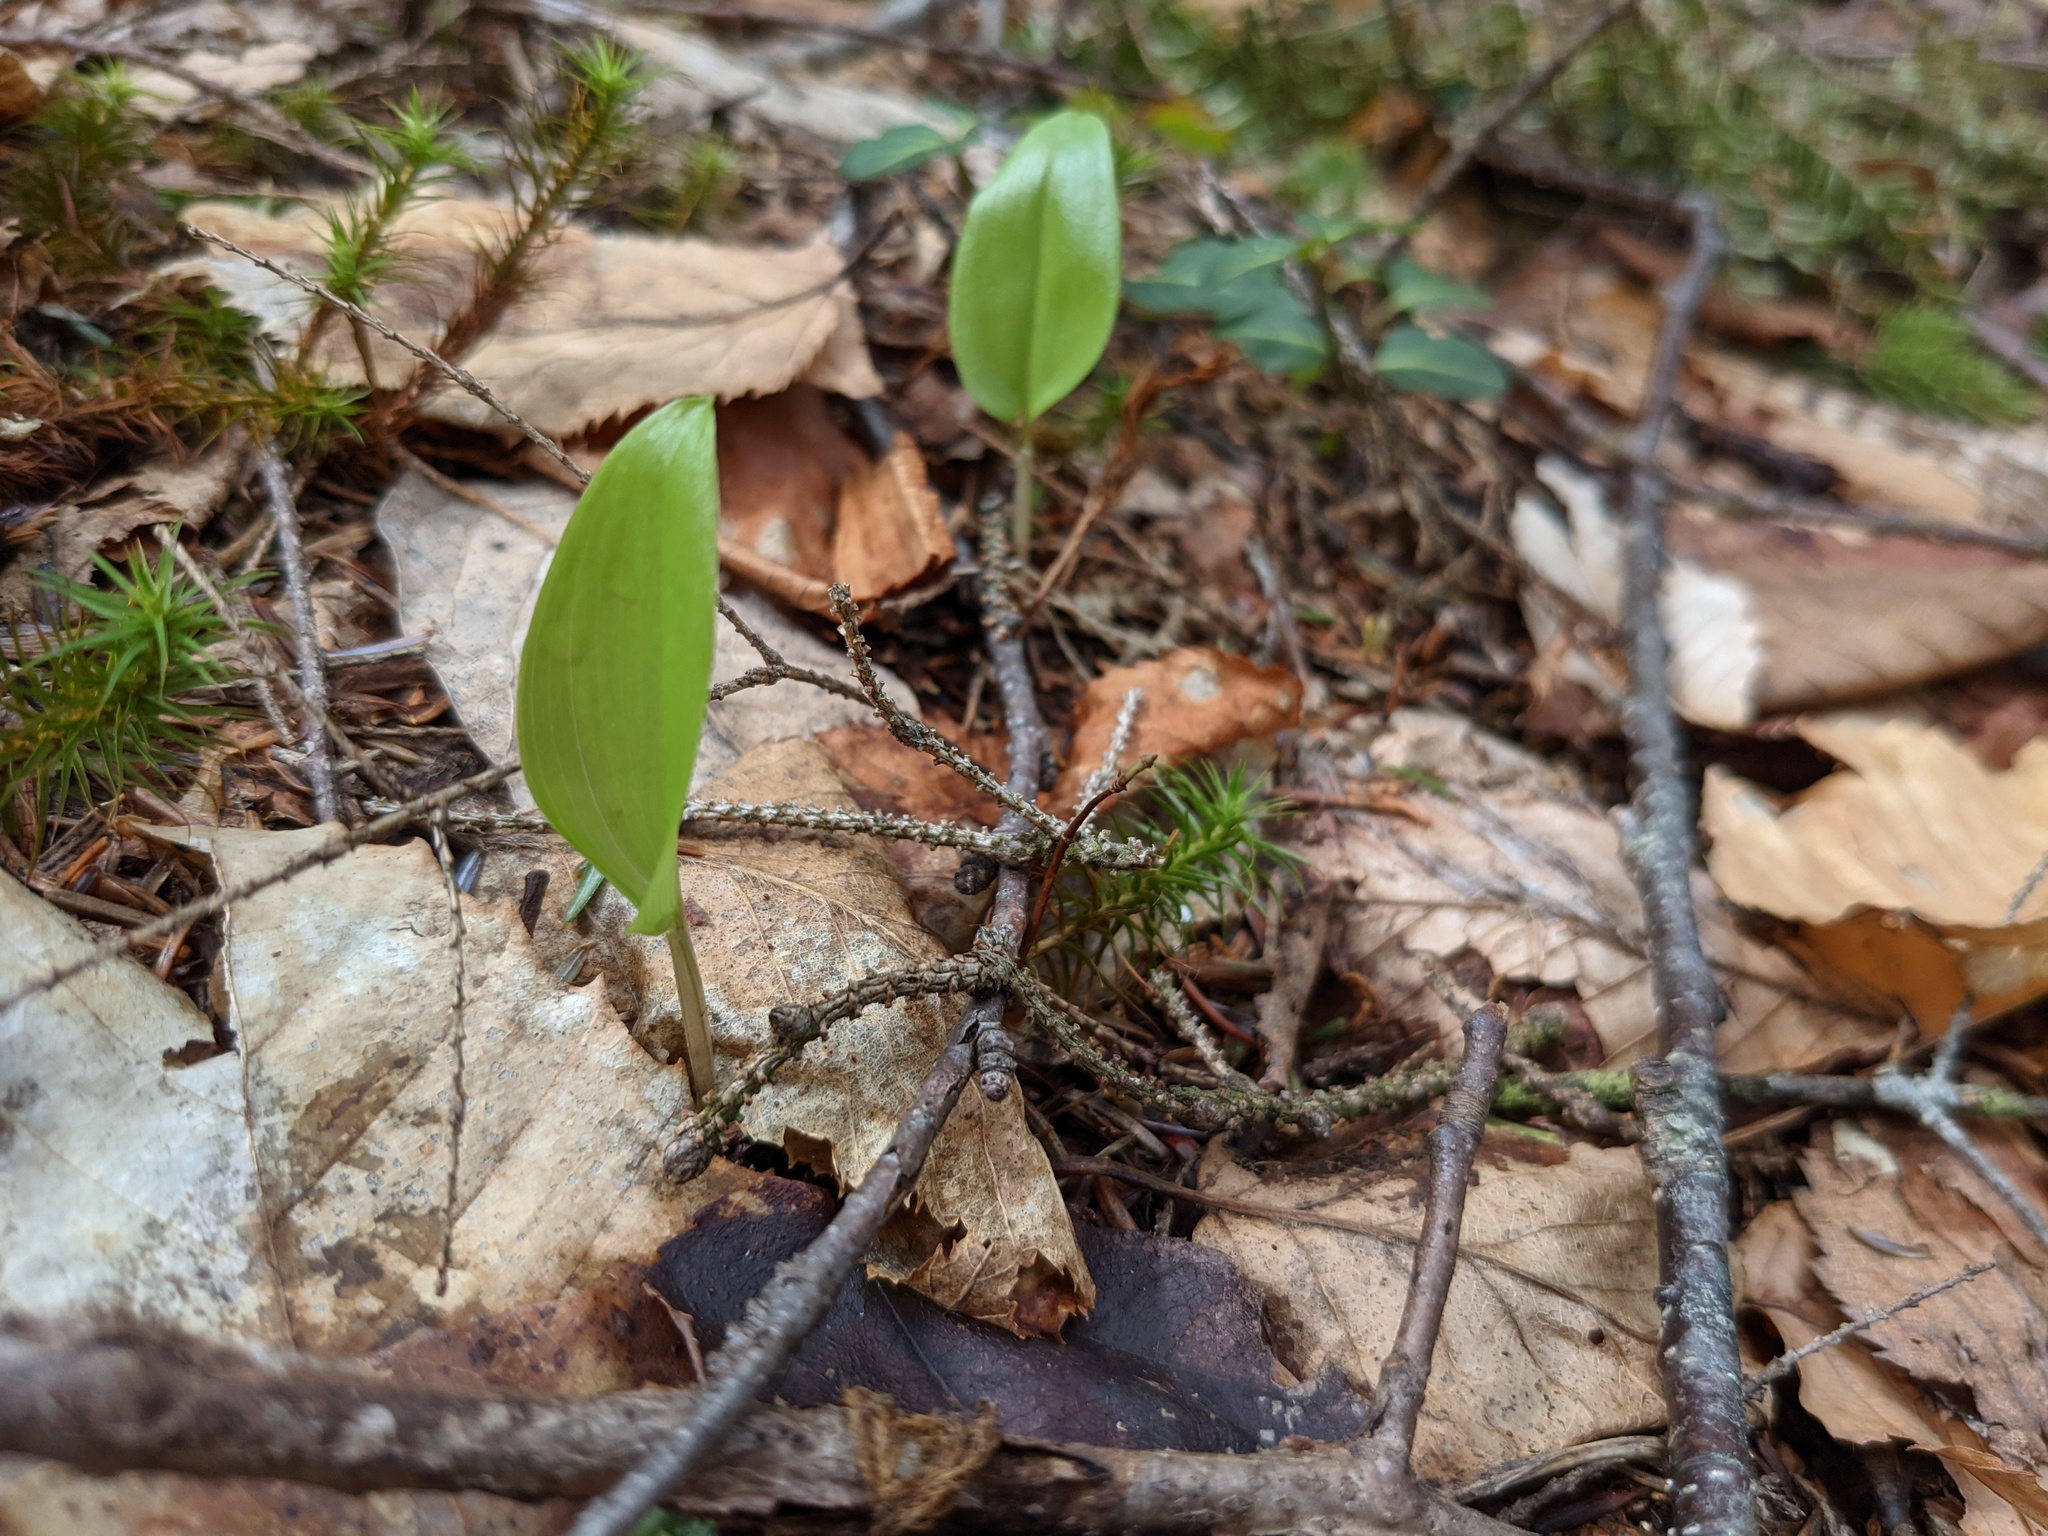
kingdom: Plantae
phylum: Tracheophyta
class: Liliopsida
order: Asparagales
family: Asparagaceae
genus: Maianthemum
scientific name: Maianthemum canadense
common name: False lily-of-the-valley
